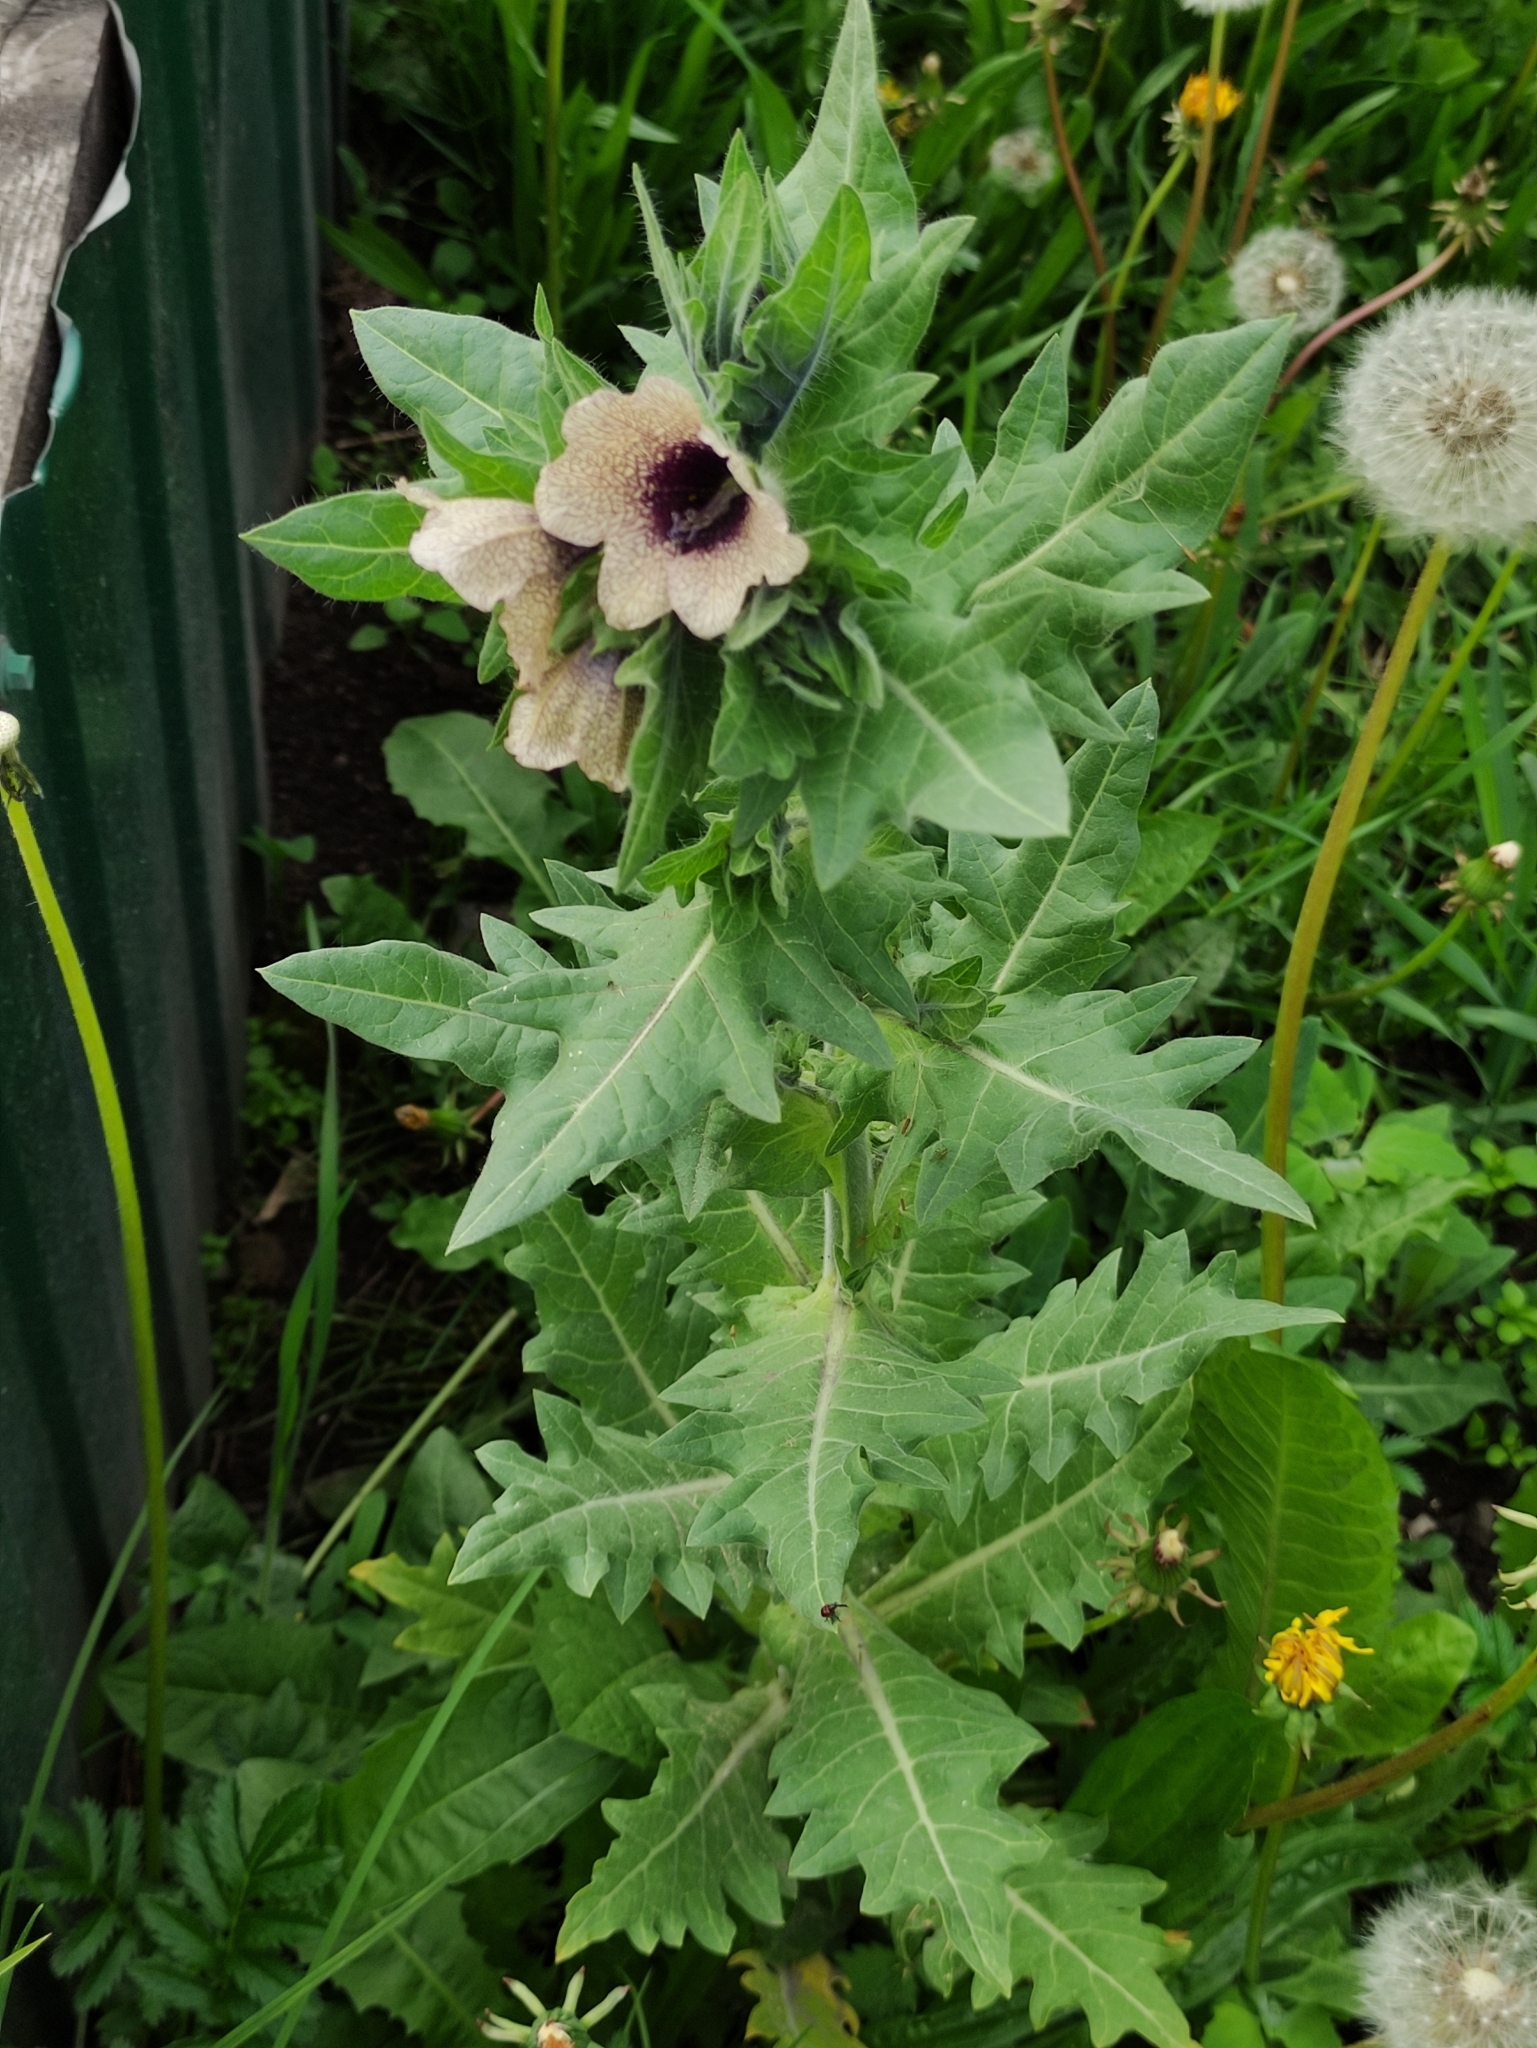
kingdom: Plantae
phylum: Tracheophyta
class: Magnoliopsida
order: Solanales
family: Solanaceae
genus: Hyoscyamus
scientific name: Hyoscyamus niger
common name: Henbane
